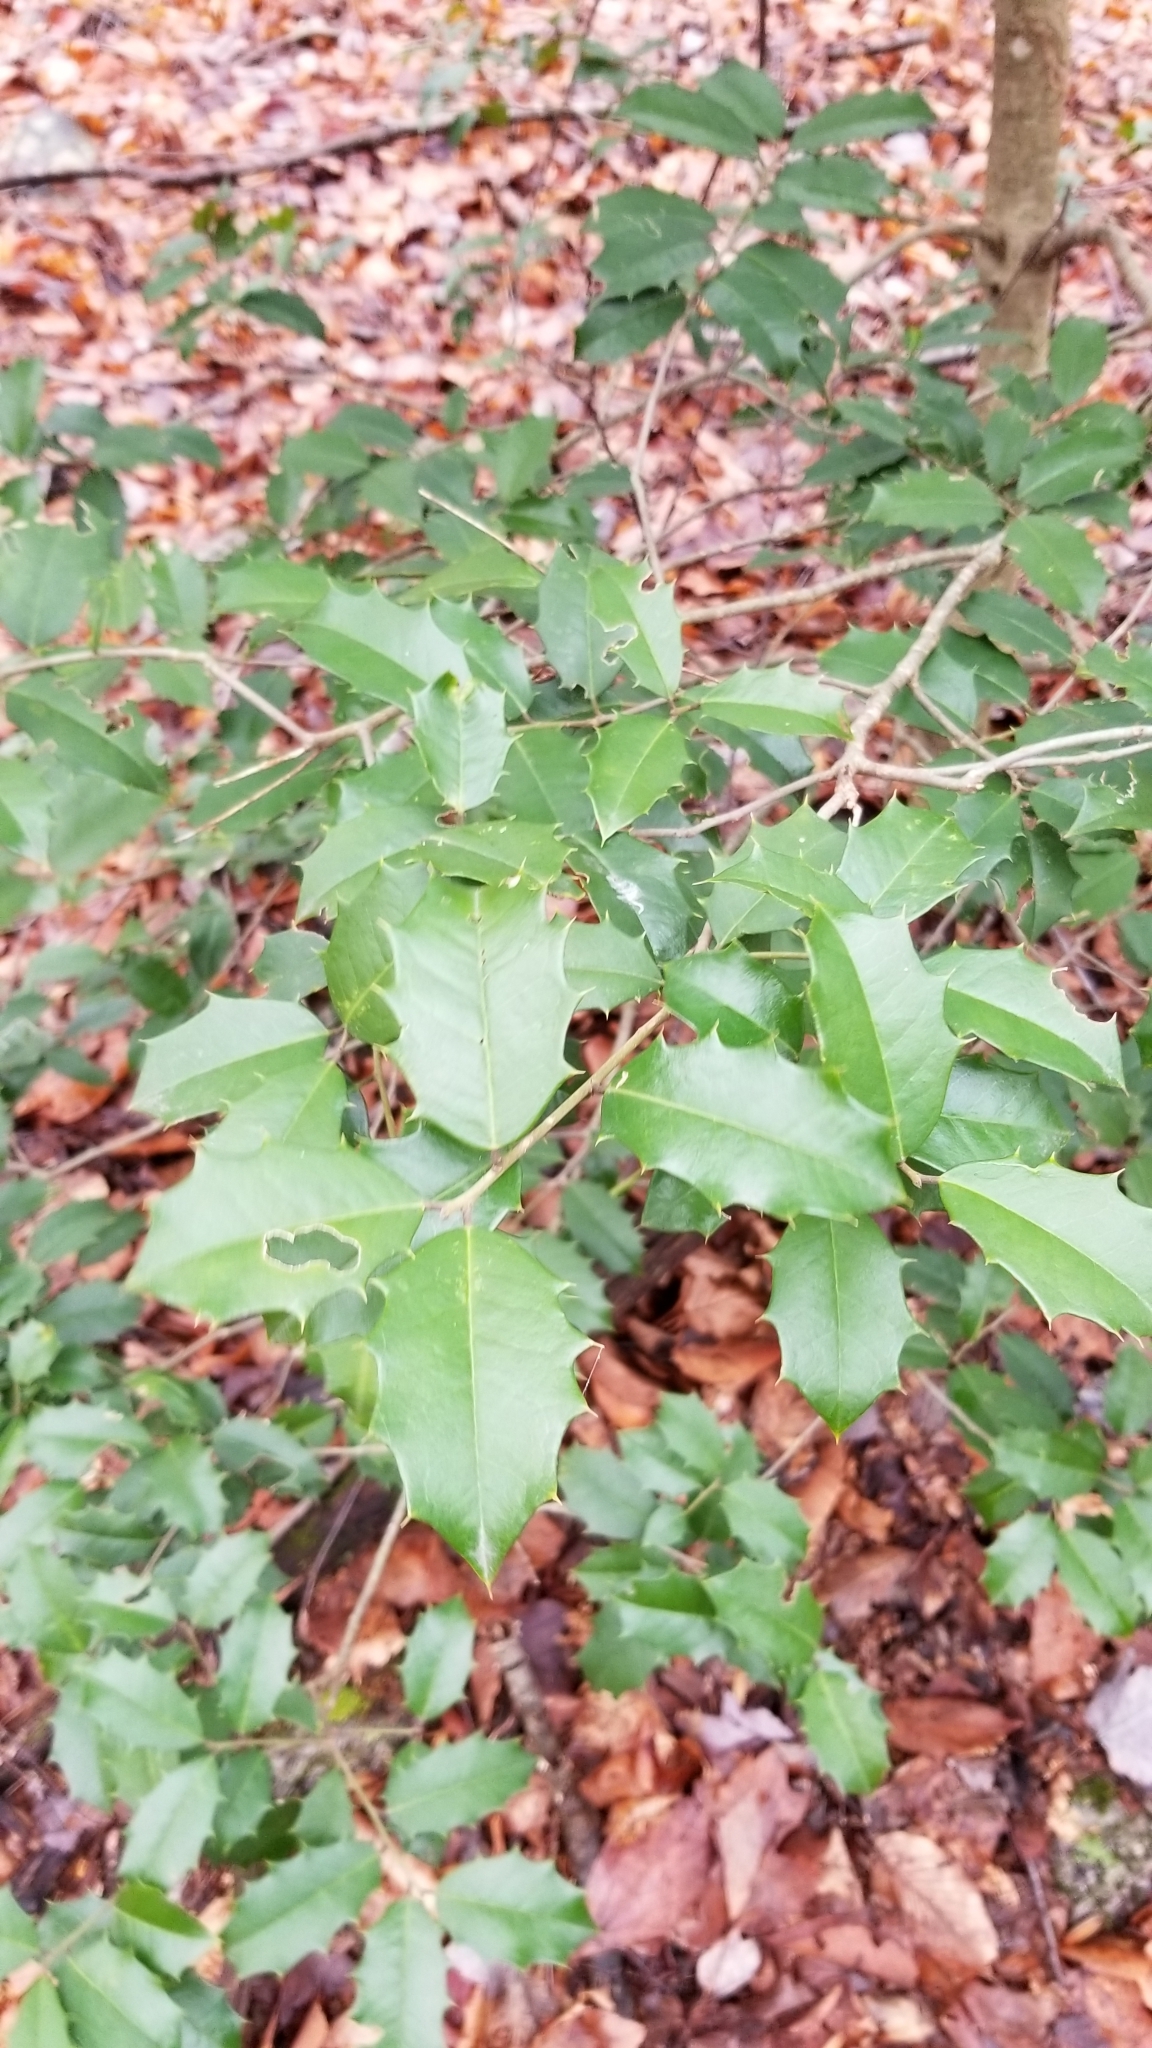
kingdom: Plantae
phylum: Tracheophyta
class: Magnoliopsida
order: Aquifoliales
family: Aquifoliaceae
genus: Ilex
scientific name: Ilex opaca
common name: American holly
